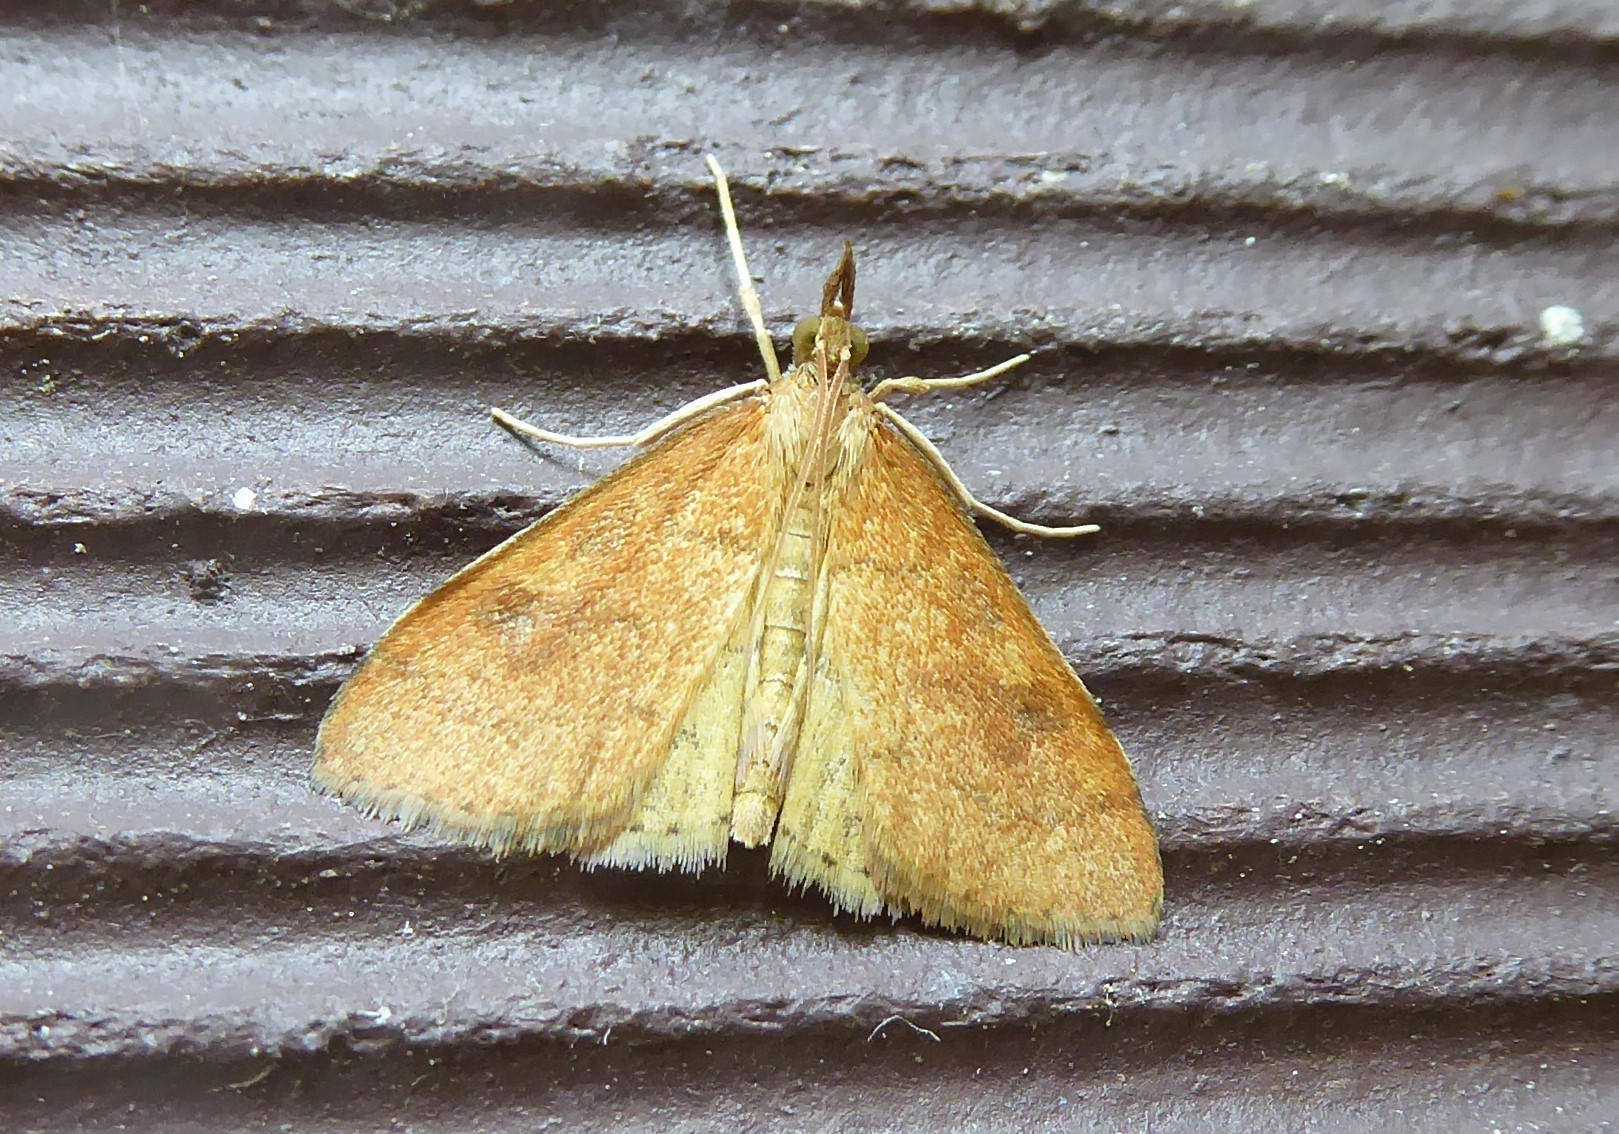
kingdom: Animalia
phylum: Arthropoda
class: Insecta
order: Lepidoptera
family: Crambidae
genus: Udea
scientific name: Udea Mnesictena flavidalis
